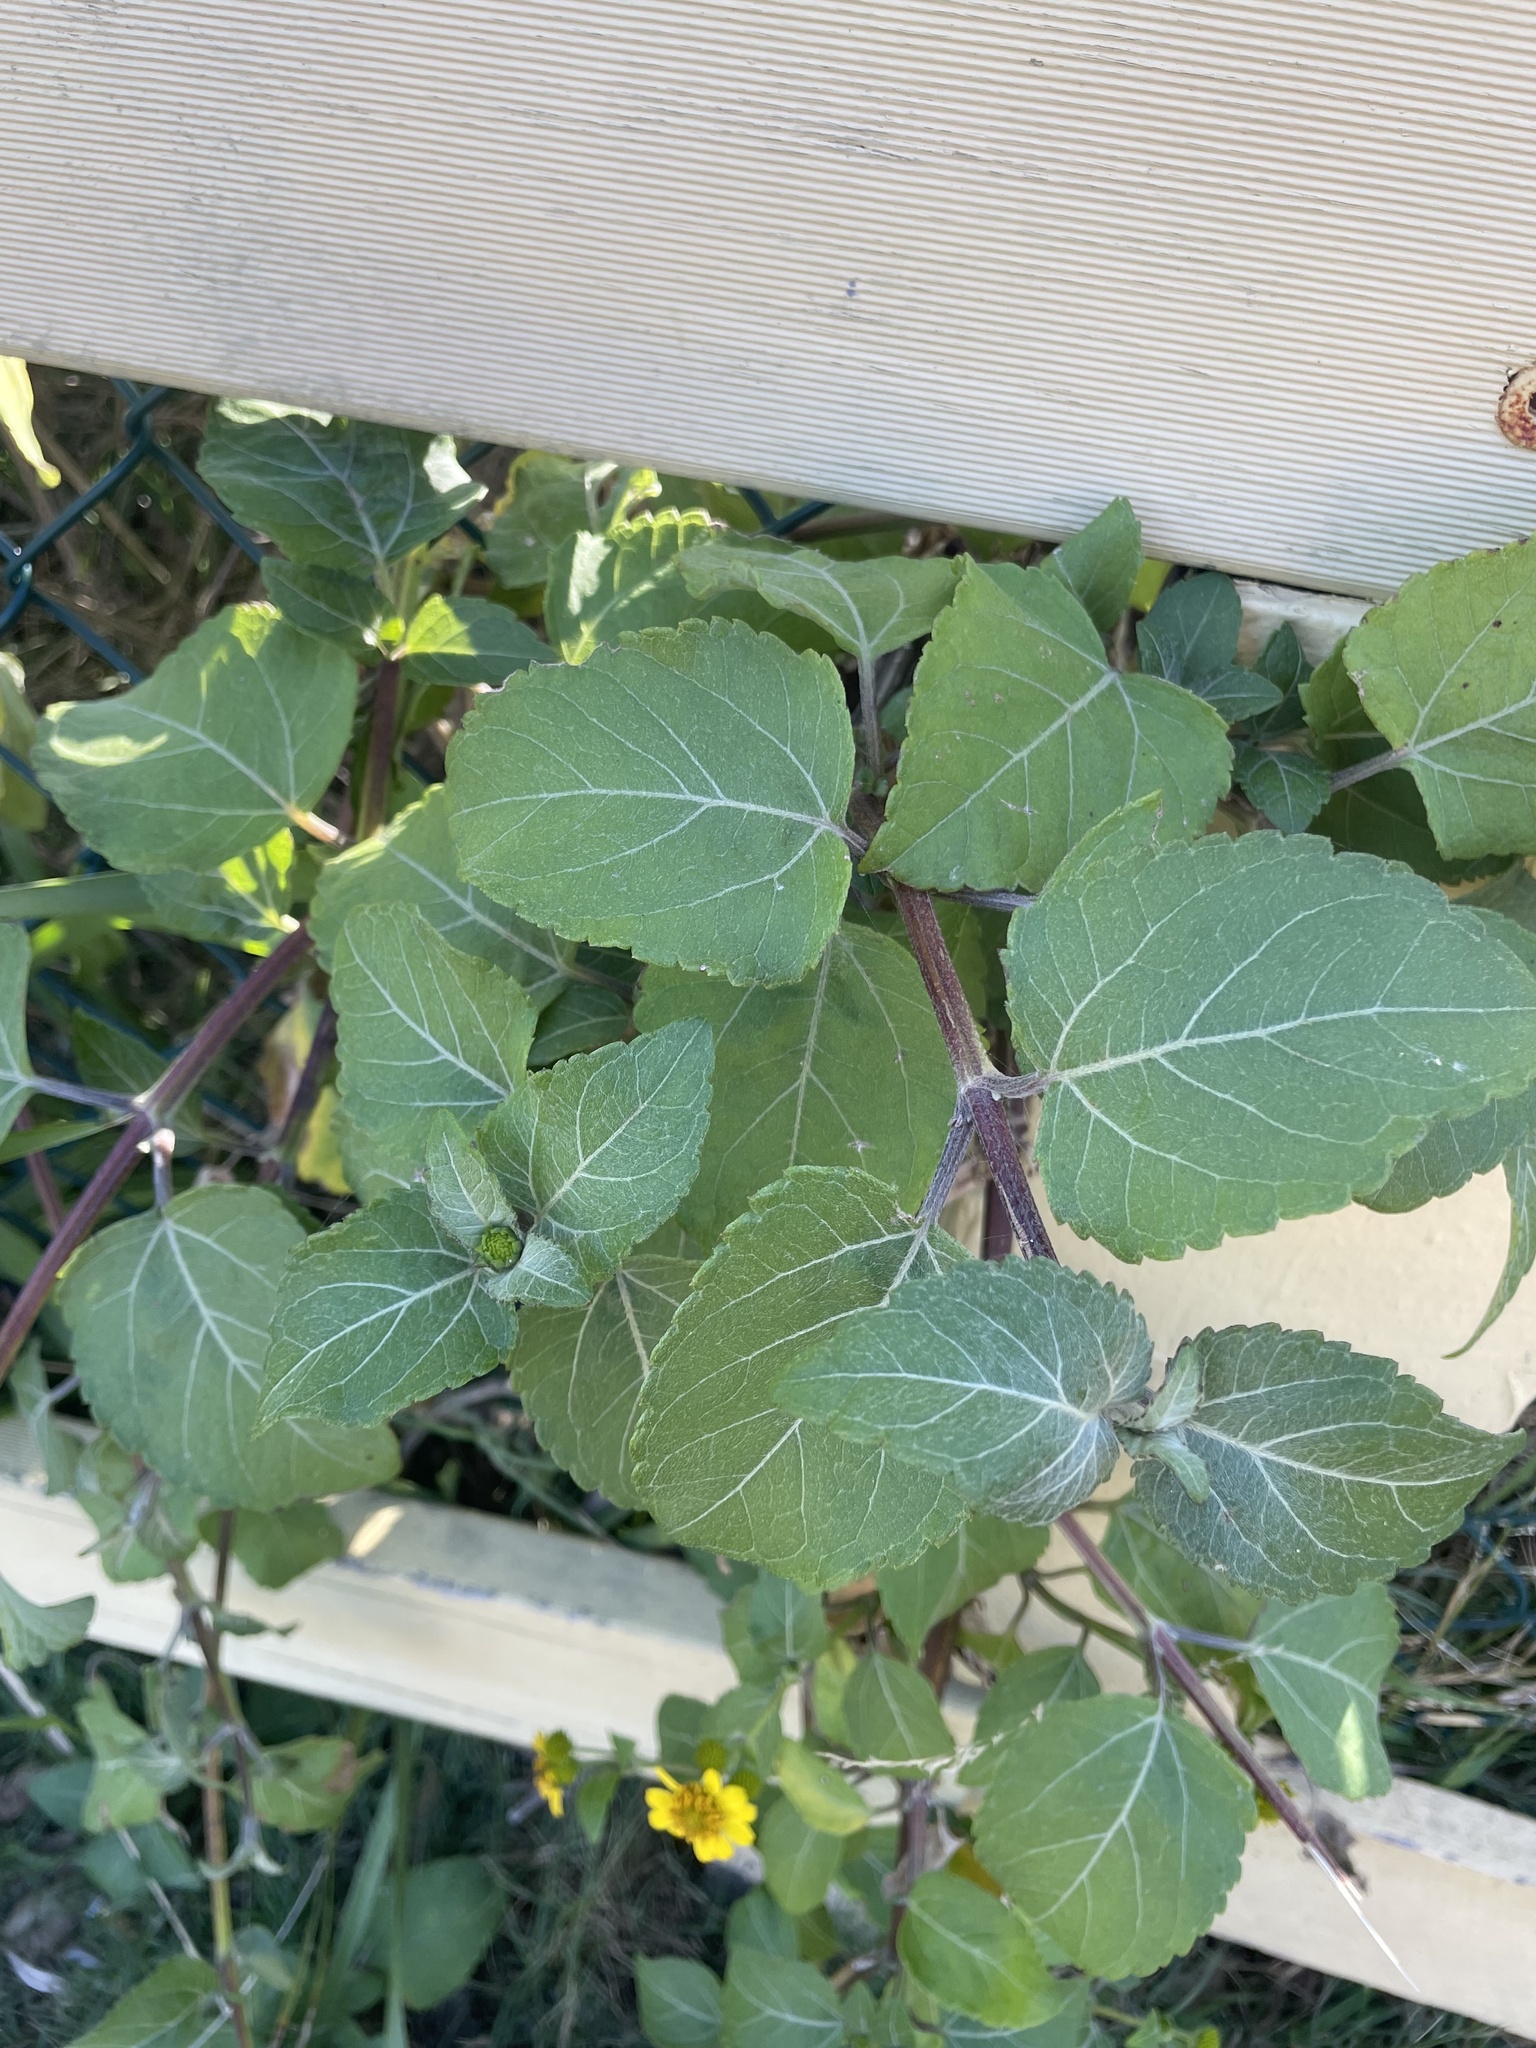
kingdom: Plantae
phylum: Tracheophyta
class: Magnoliopsida
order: Asterales
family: Asteraceae
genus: Wollastonia
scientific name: Wollastonia uniflora
